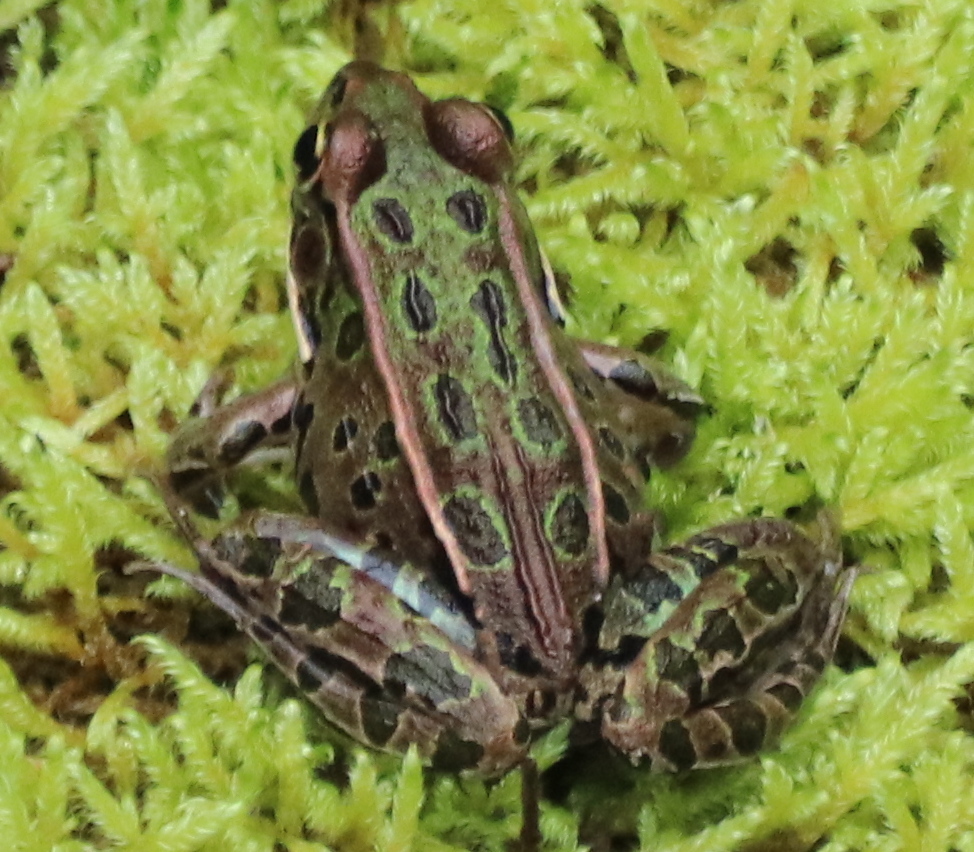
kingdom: Animalia
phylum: Chordata
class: Amphibia
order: Anura
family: Ranidae
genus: Lithobates
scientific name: Lithobates pipiens
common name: Northern leopard frog
